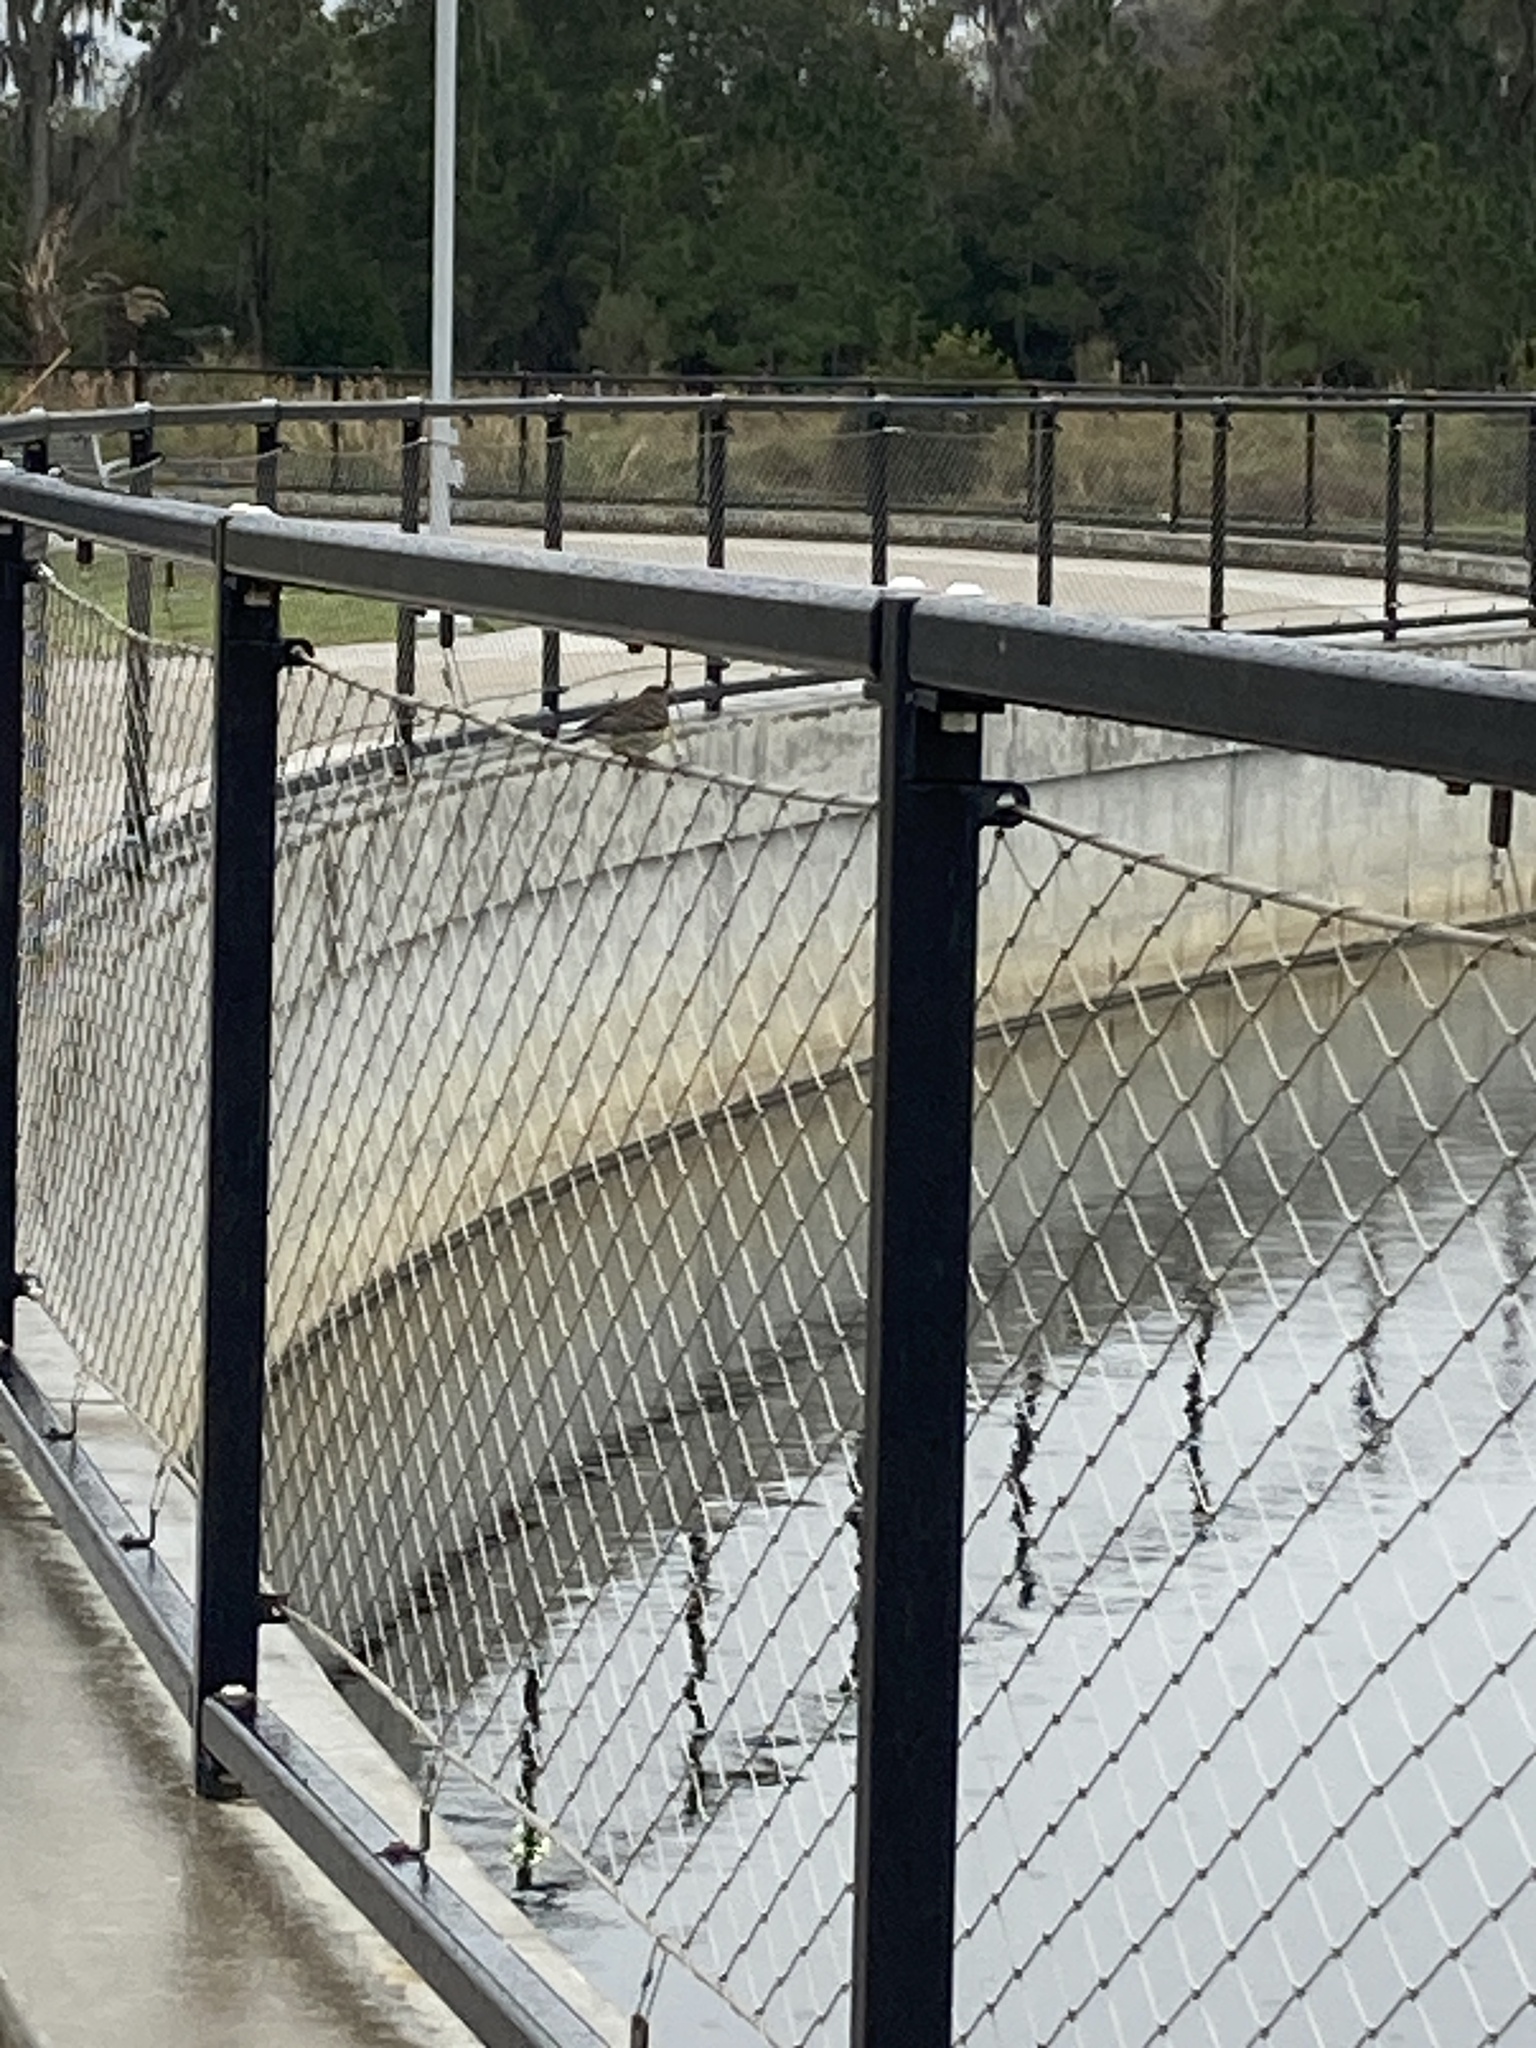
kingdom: Animalia
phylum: Chordata
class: Aves
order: Passeriformes
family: Parulidae
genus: Setophaga
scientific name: Setophaga coronata
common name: Myrtle warbler
